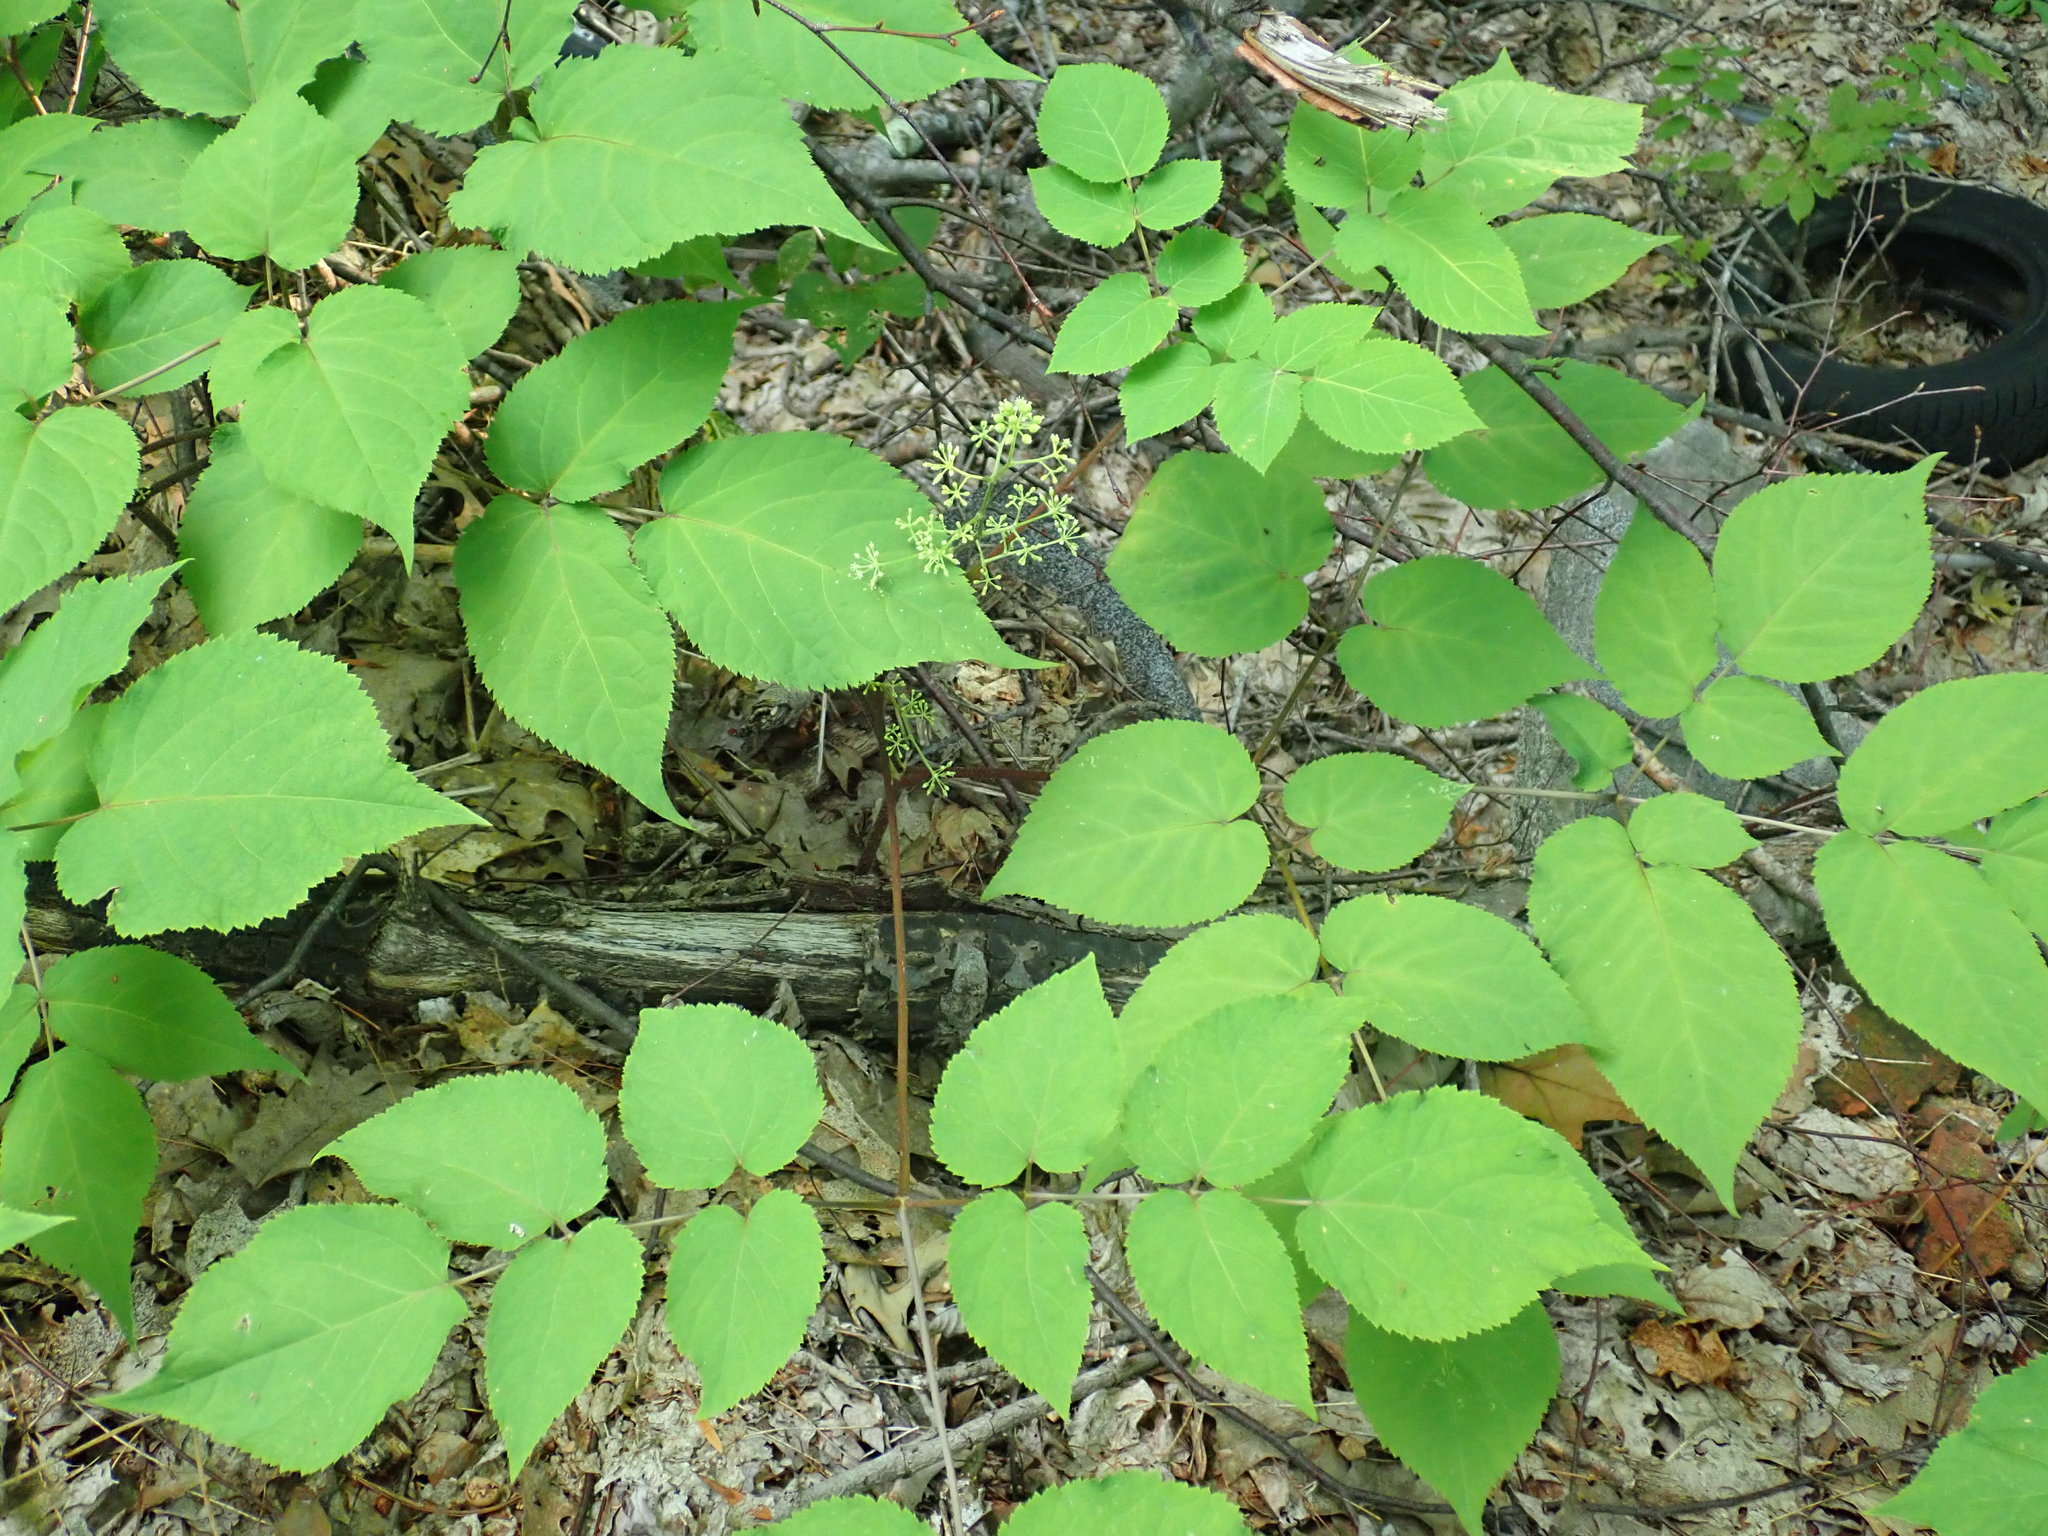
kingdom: Plantae
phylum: Tracheophyta
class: Magnoliopsida
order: Apiales
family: Araliaceae
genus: Aralia
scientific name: Aralia racemosa
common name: American-spikenard
